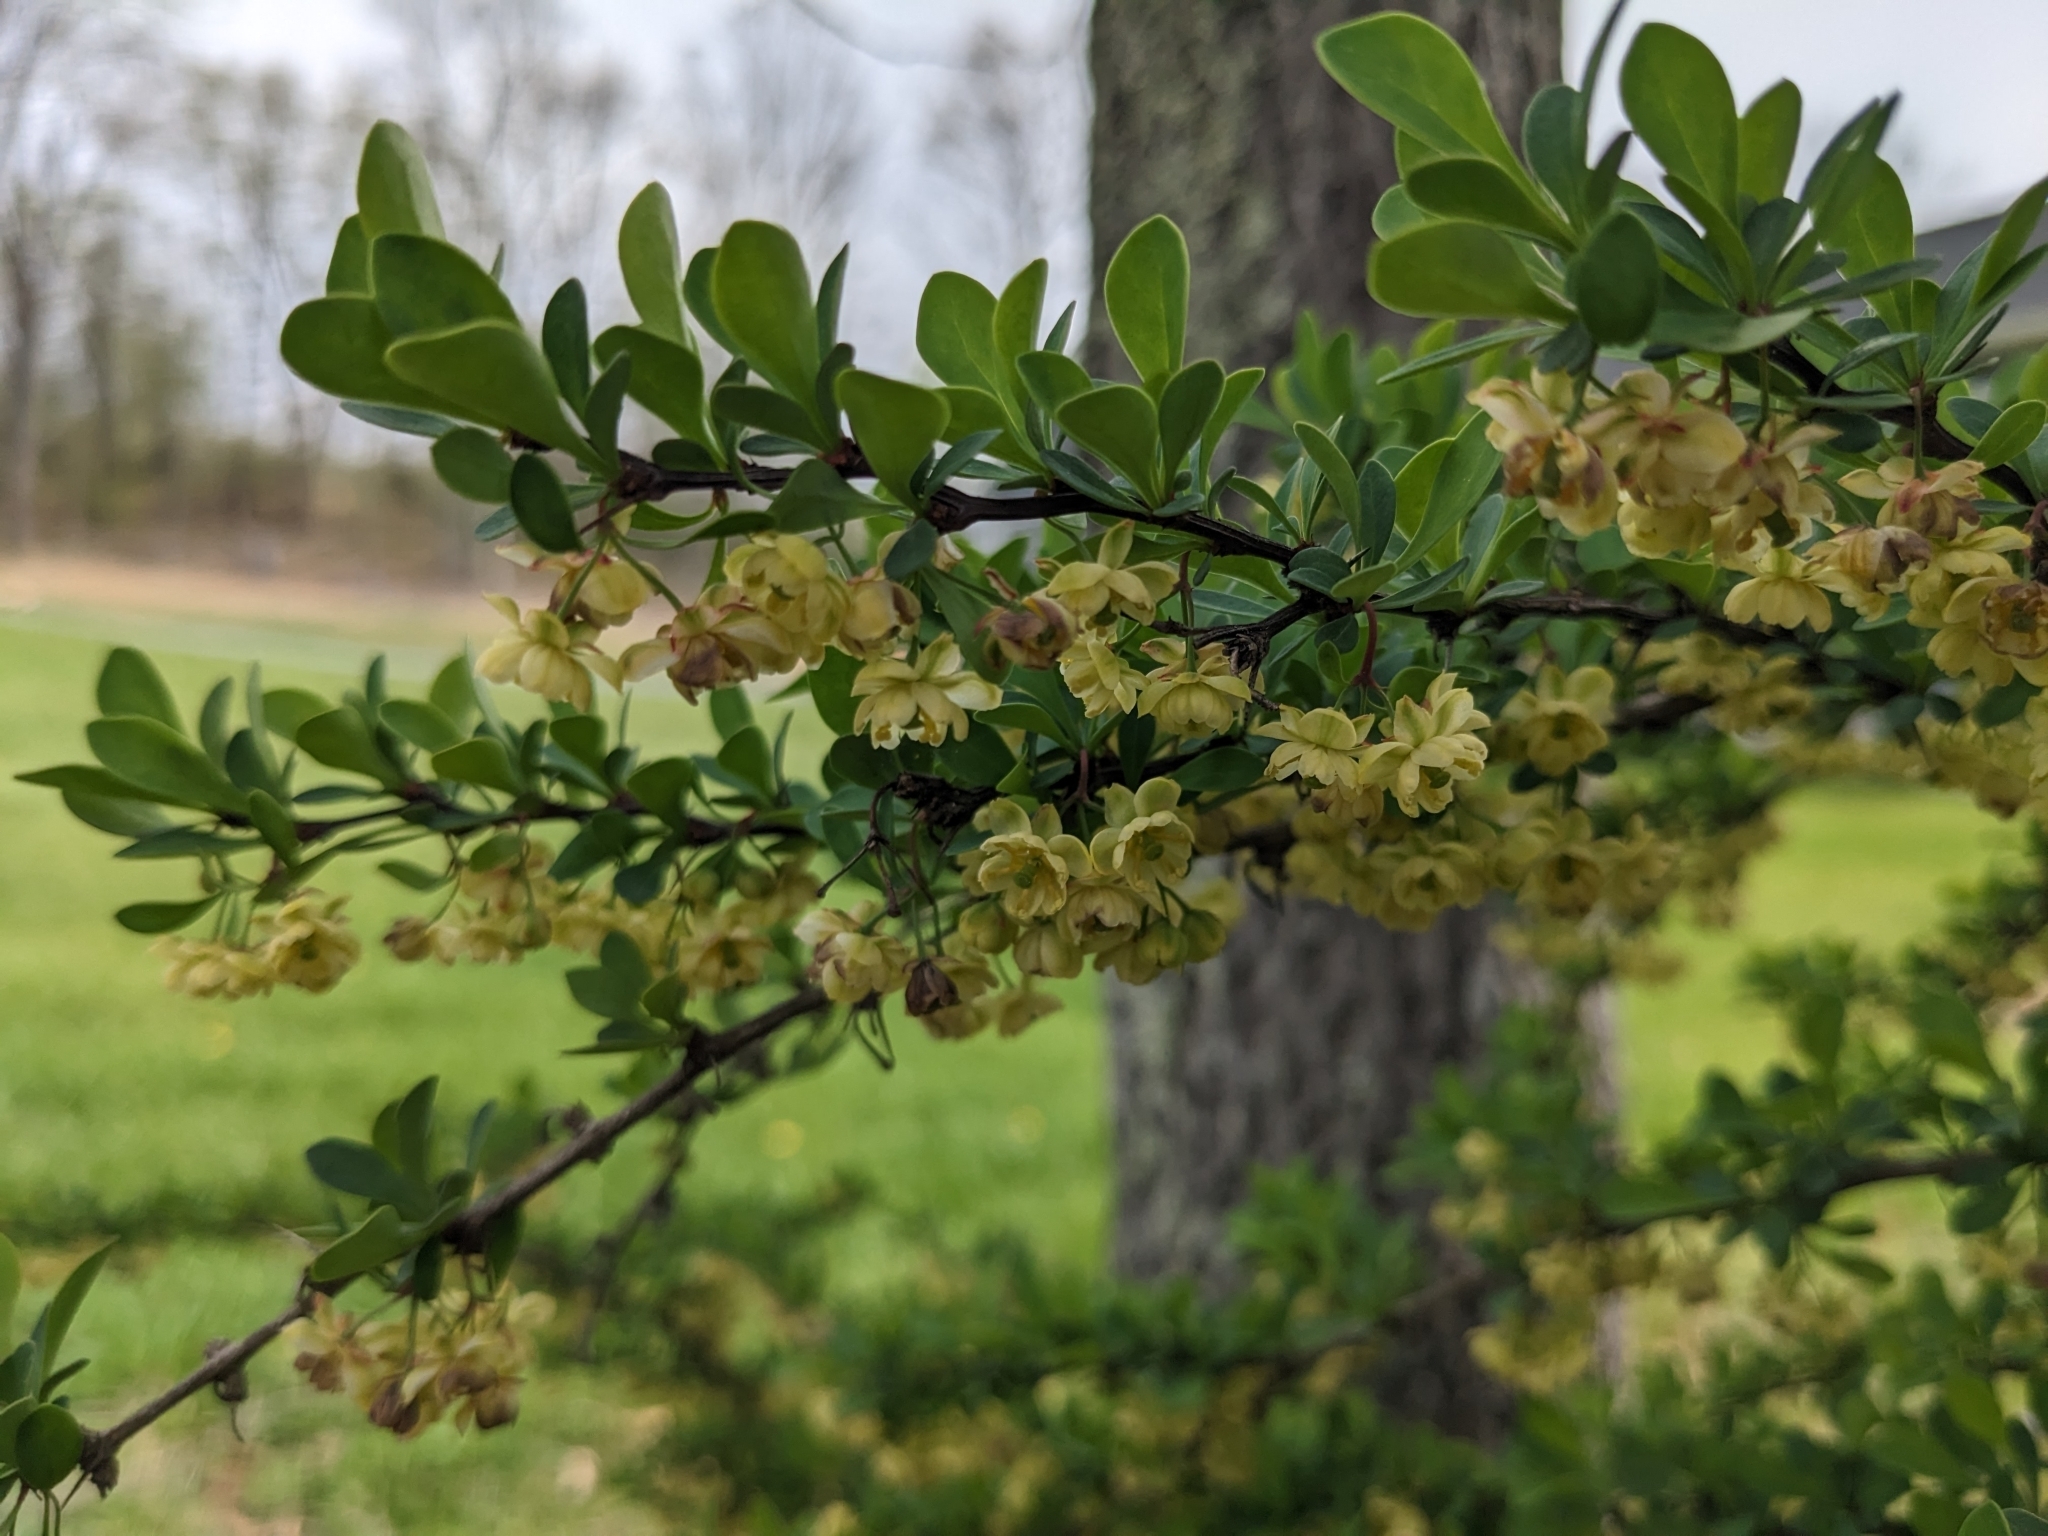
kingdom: Plantae
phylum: Tracheophyta
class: Magnoliopsida
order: Ranunculales
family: Berberidaceae
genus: Berberis
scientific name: Berberis thunbergii
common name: Japanese barberry
